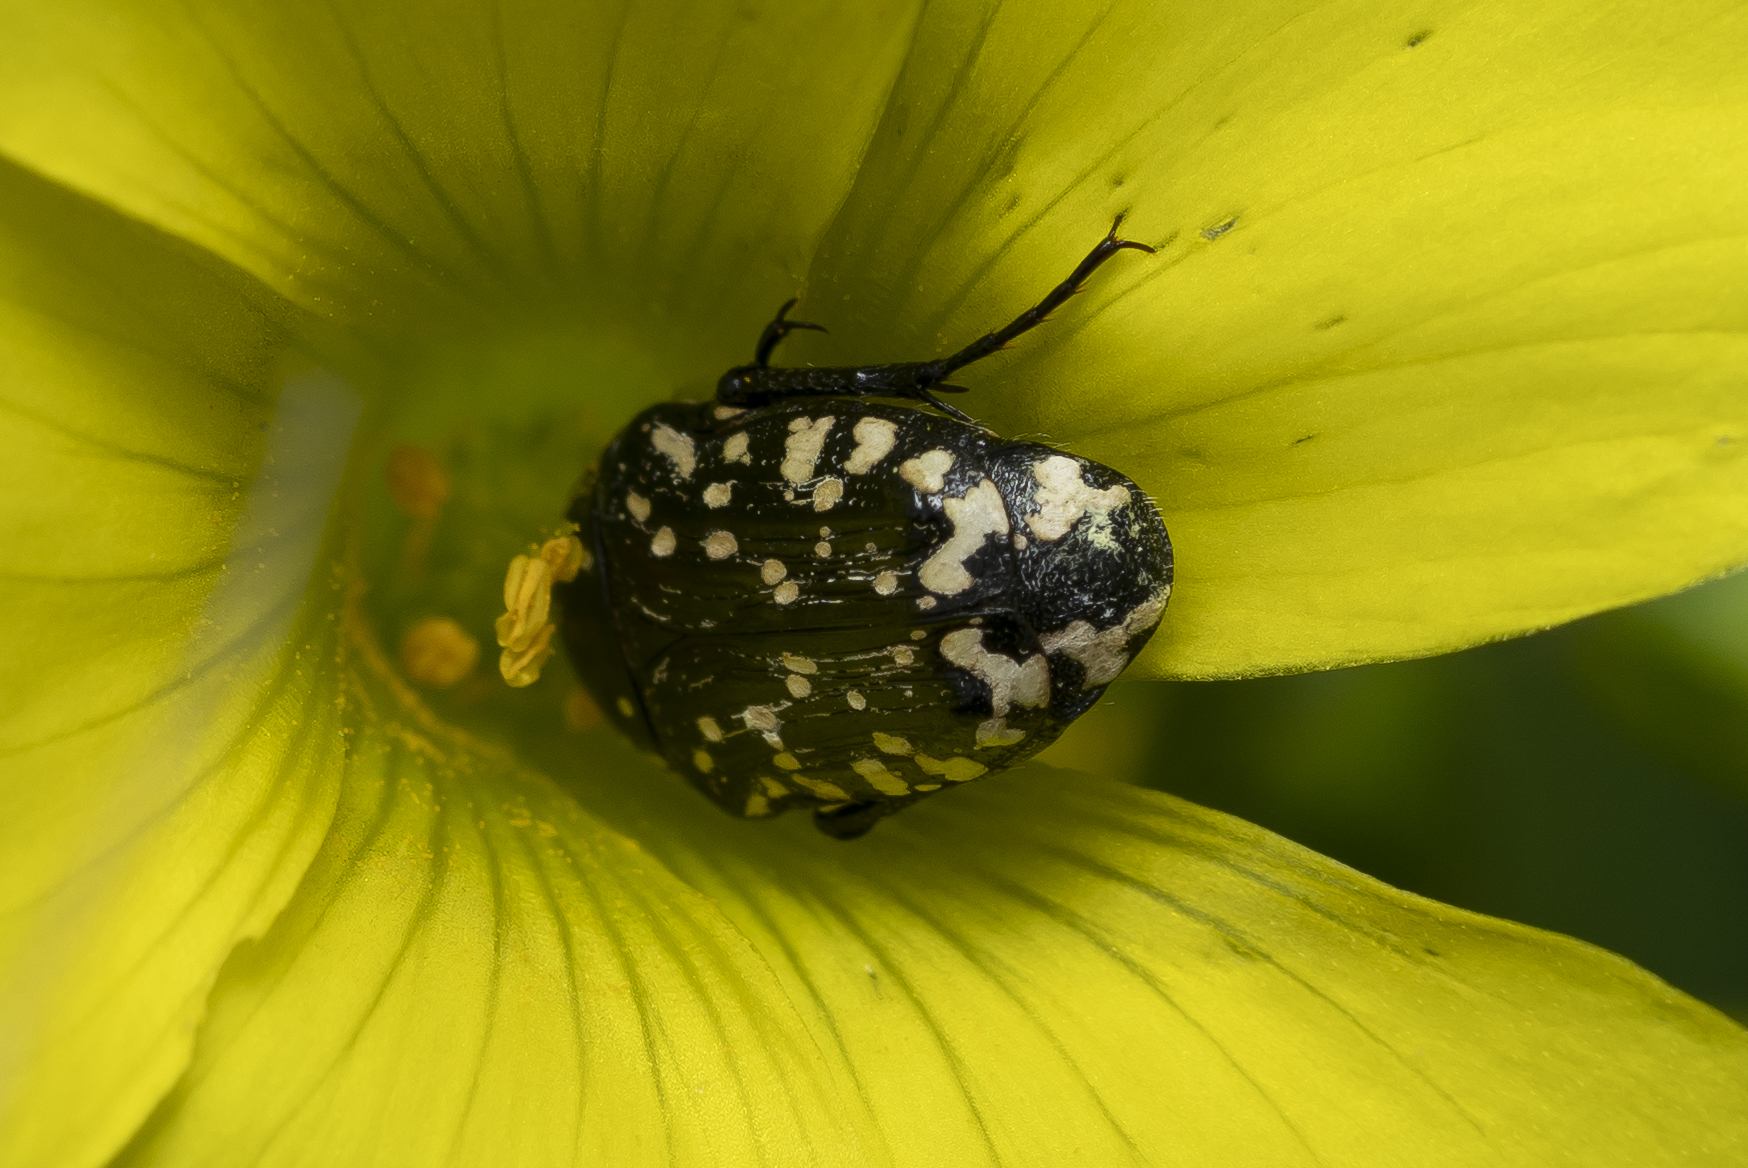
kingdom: Animalia
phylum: Arthropoda
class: Insecta
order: Coleoptera
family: Scarabaeidae
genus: Oxythyrea
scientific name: Oxythyrea cinctella
